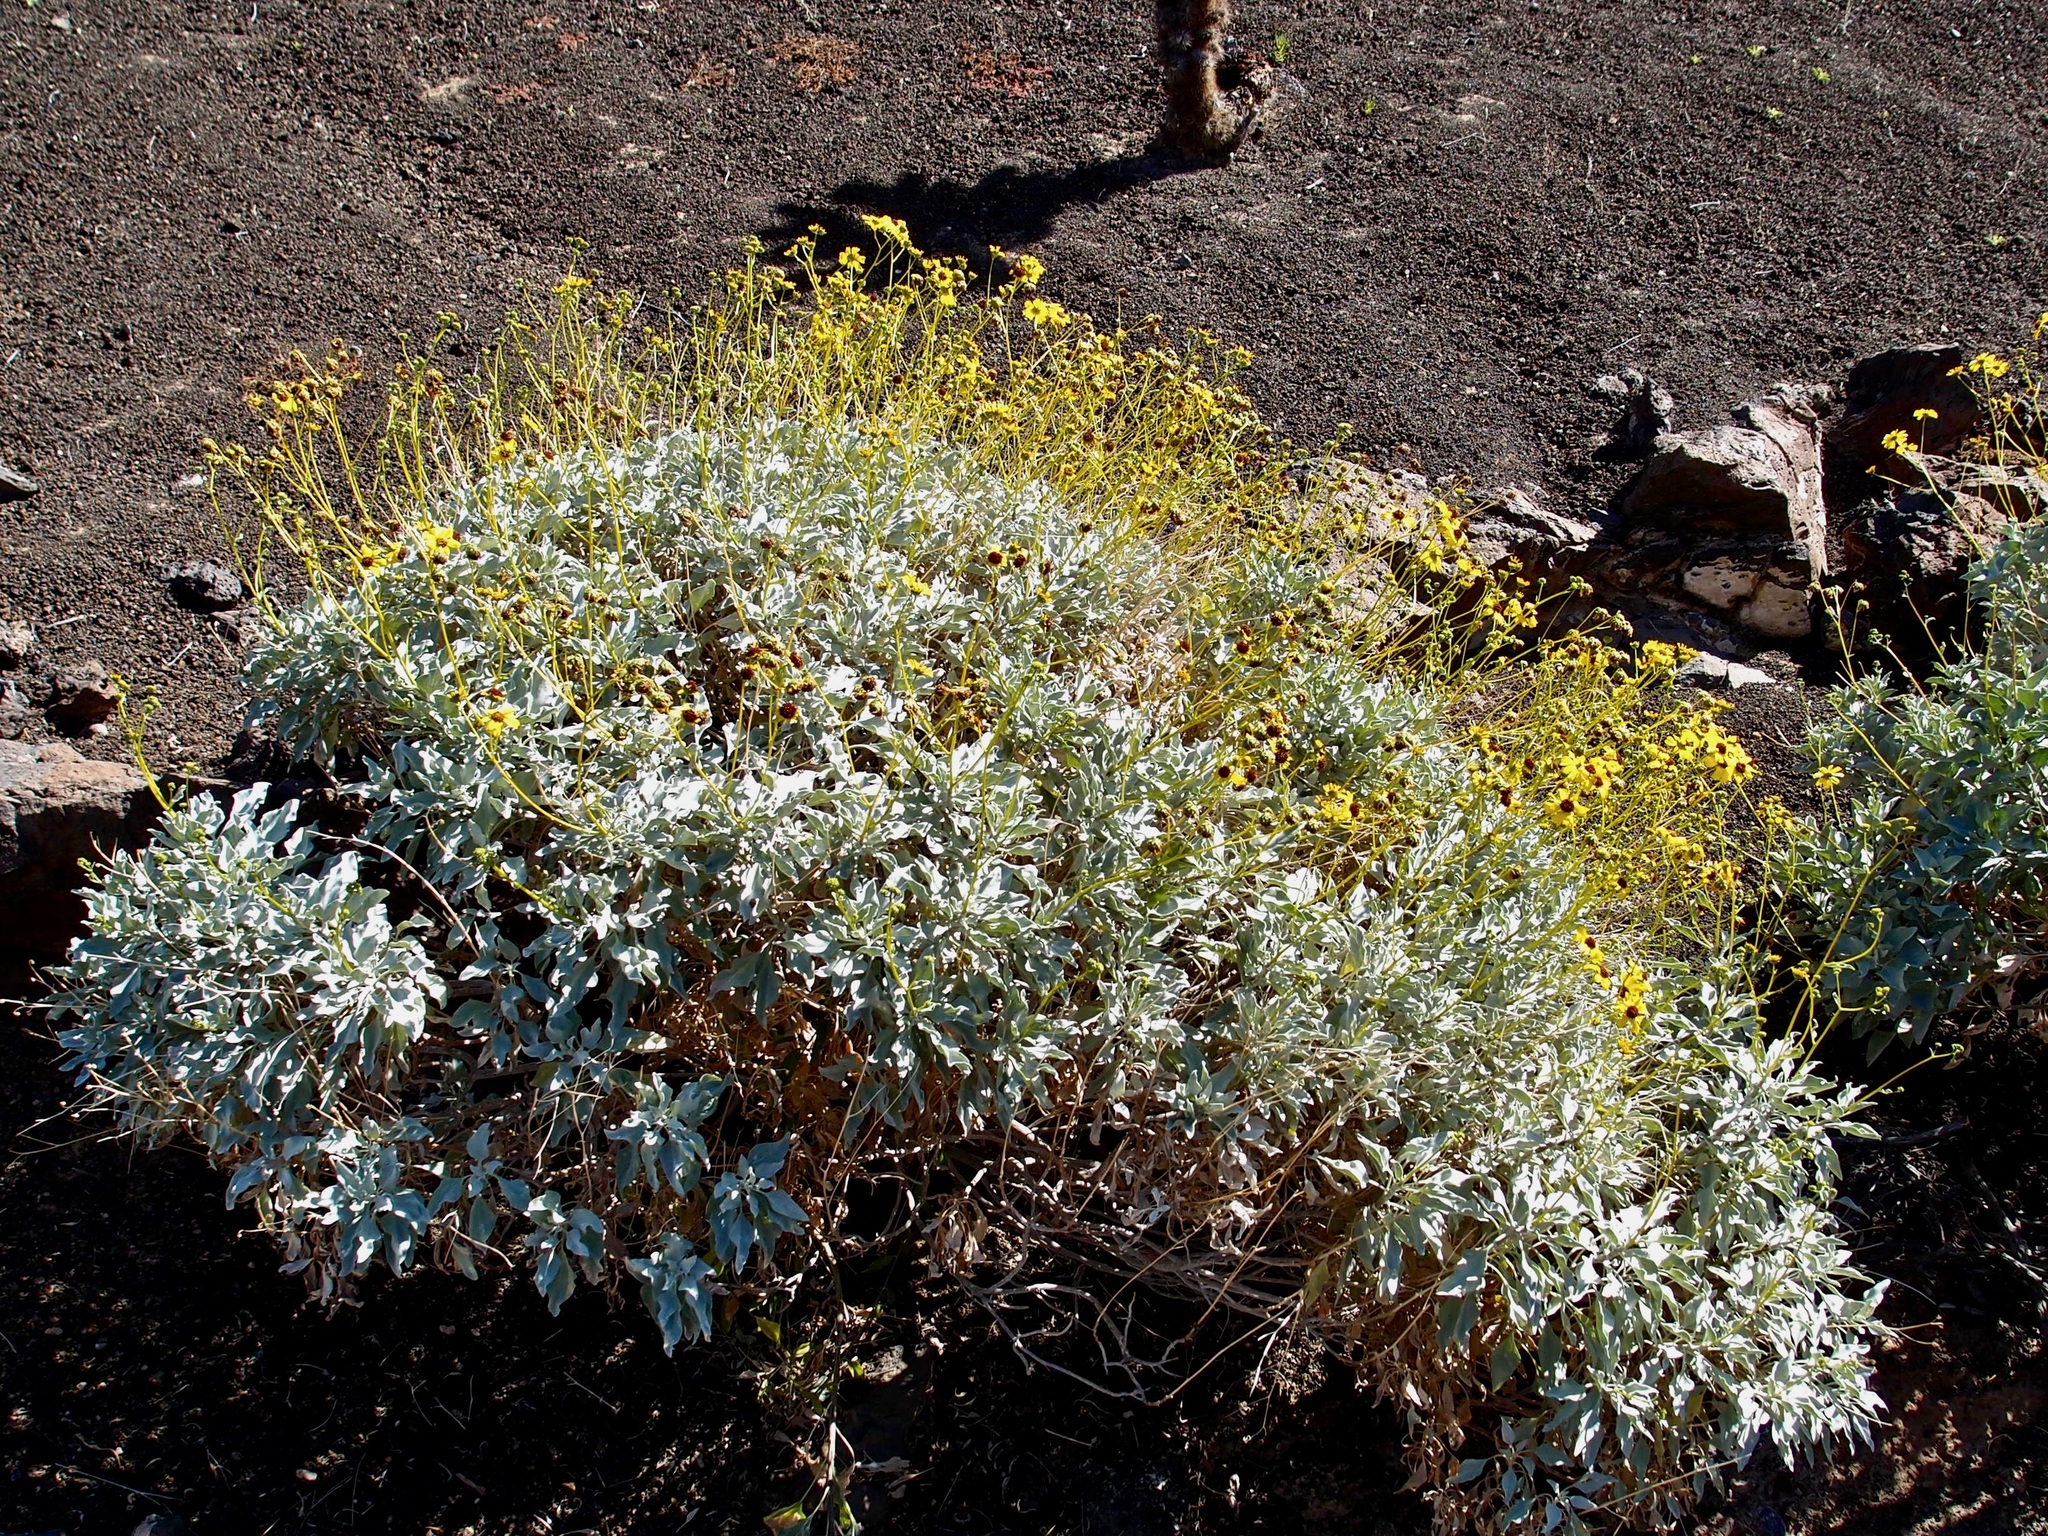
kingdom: Plantae
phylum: Tracheophyta
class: Magnoliopsida
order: Asterales
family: Asteraceae
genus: Encelia
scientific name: Encelia farinosa
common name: Brittlebush
